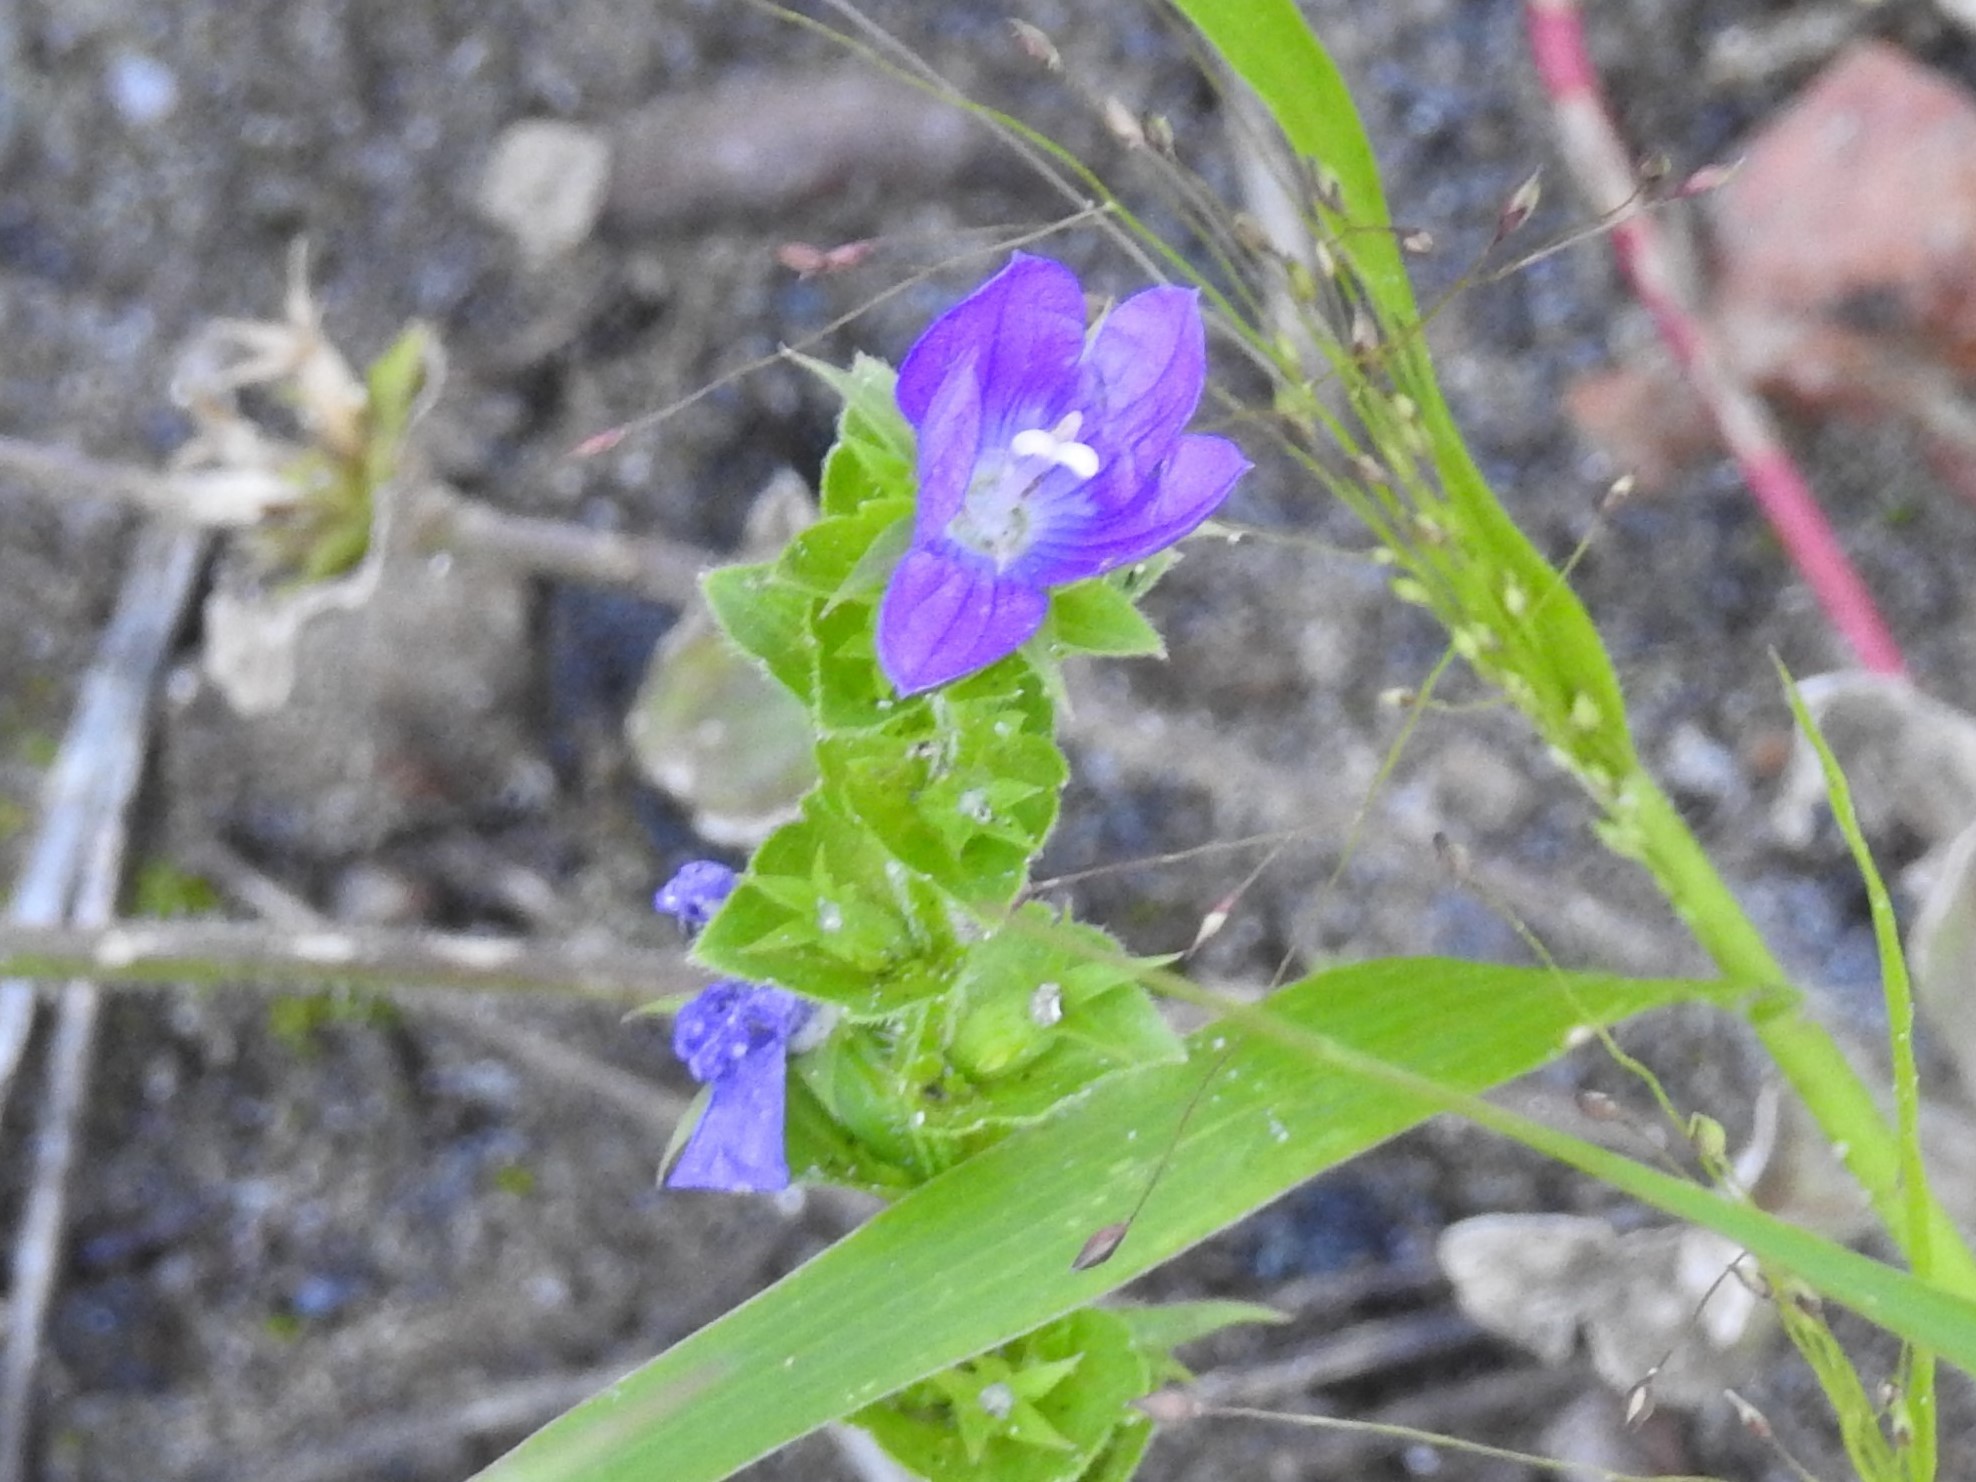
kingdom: Plantae
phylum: Tracheophyta
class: Magnoliopsida
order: Asterales
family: Campanulaceae
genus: Triodanis
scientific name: Triodanis perfoliata
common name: Clasping venus' looking-glass
